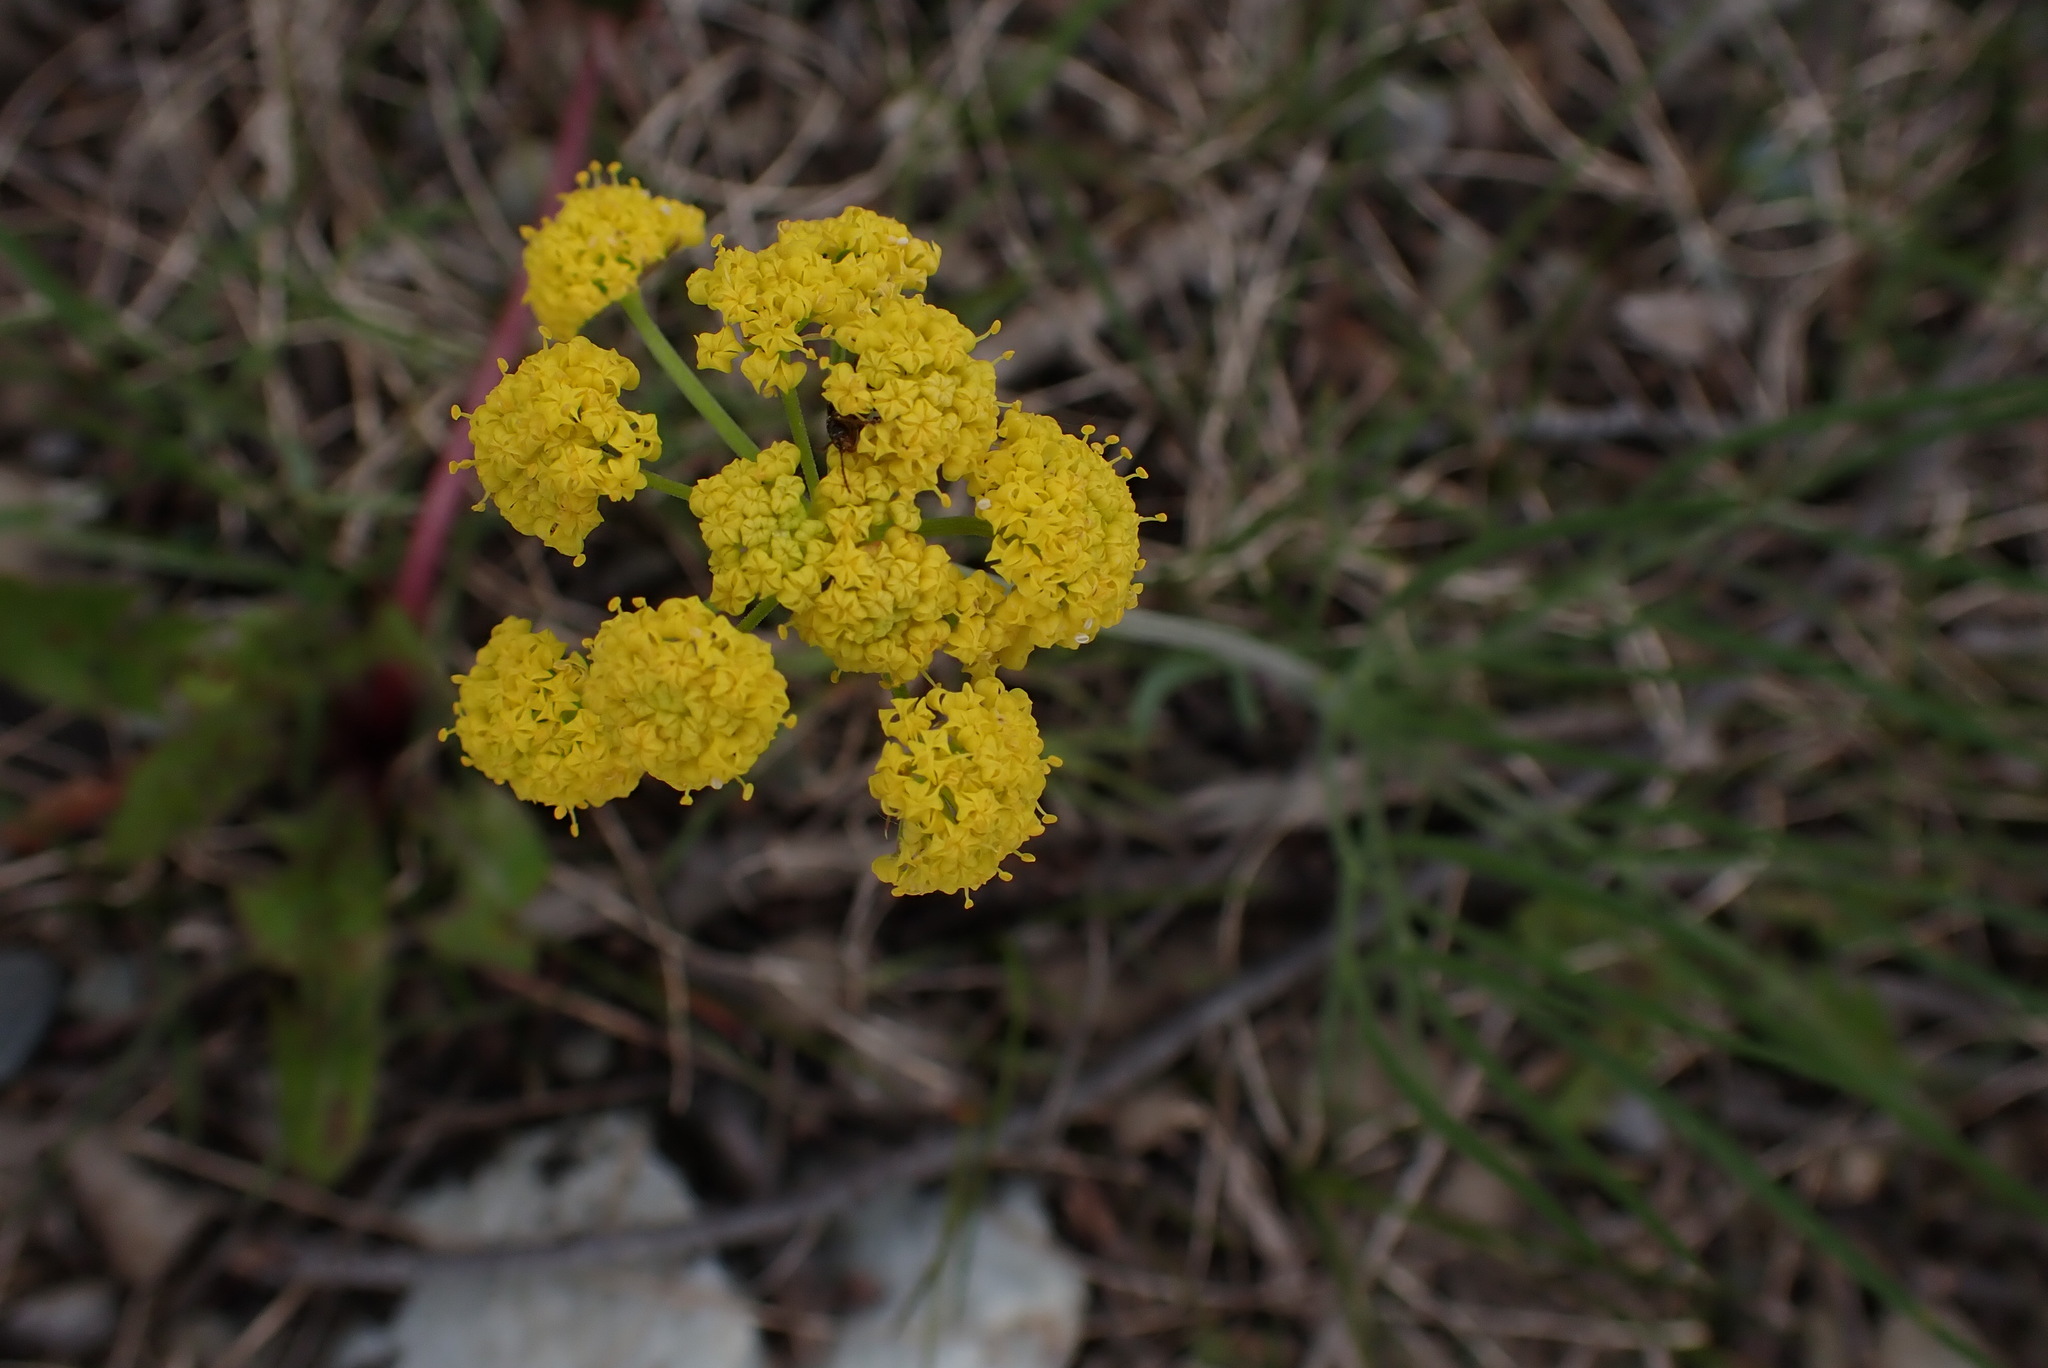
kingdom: Plantae
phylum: Tracheophyta
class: Magnoliopsida
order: Apiales
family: Apiaceae
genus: Lomatium
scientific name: Lomatium triternatum
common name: Ternate lomatium
